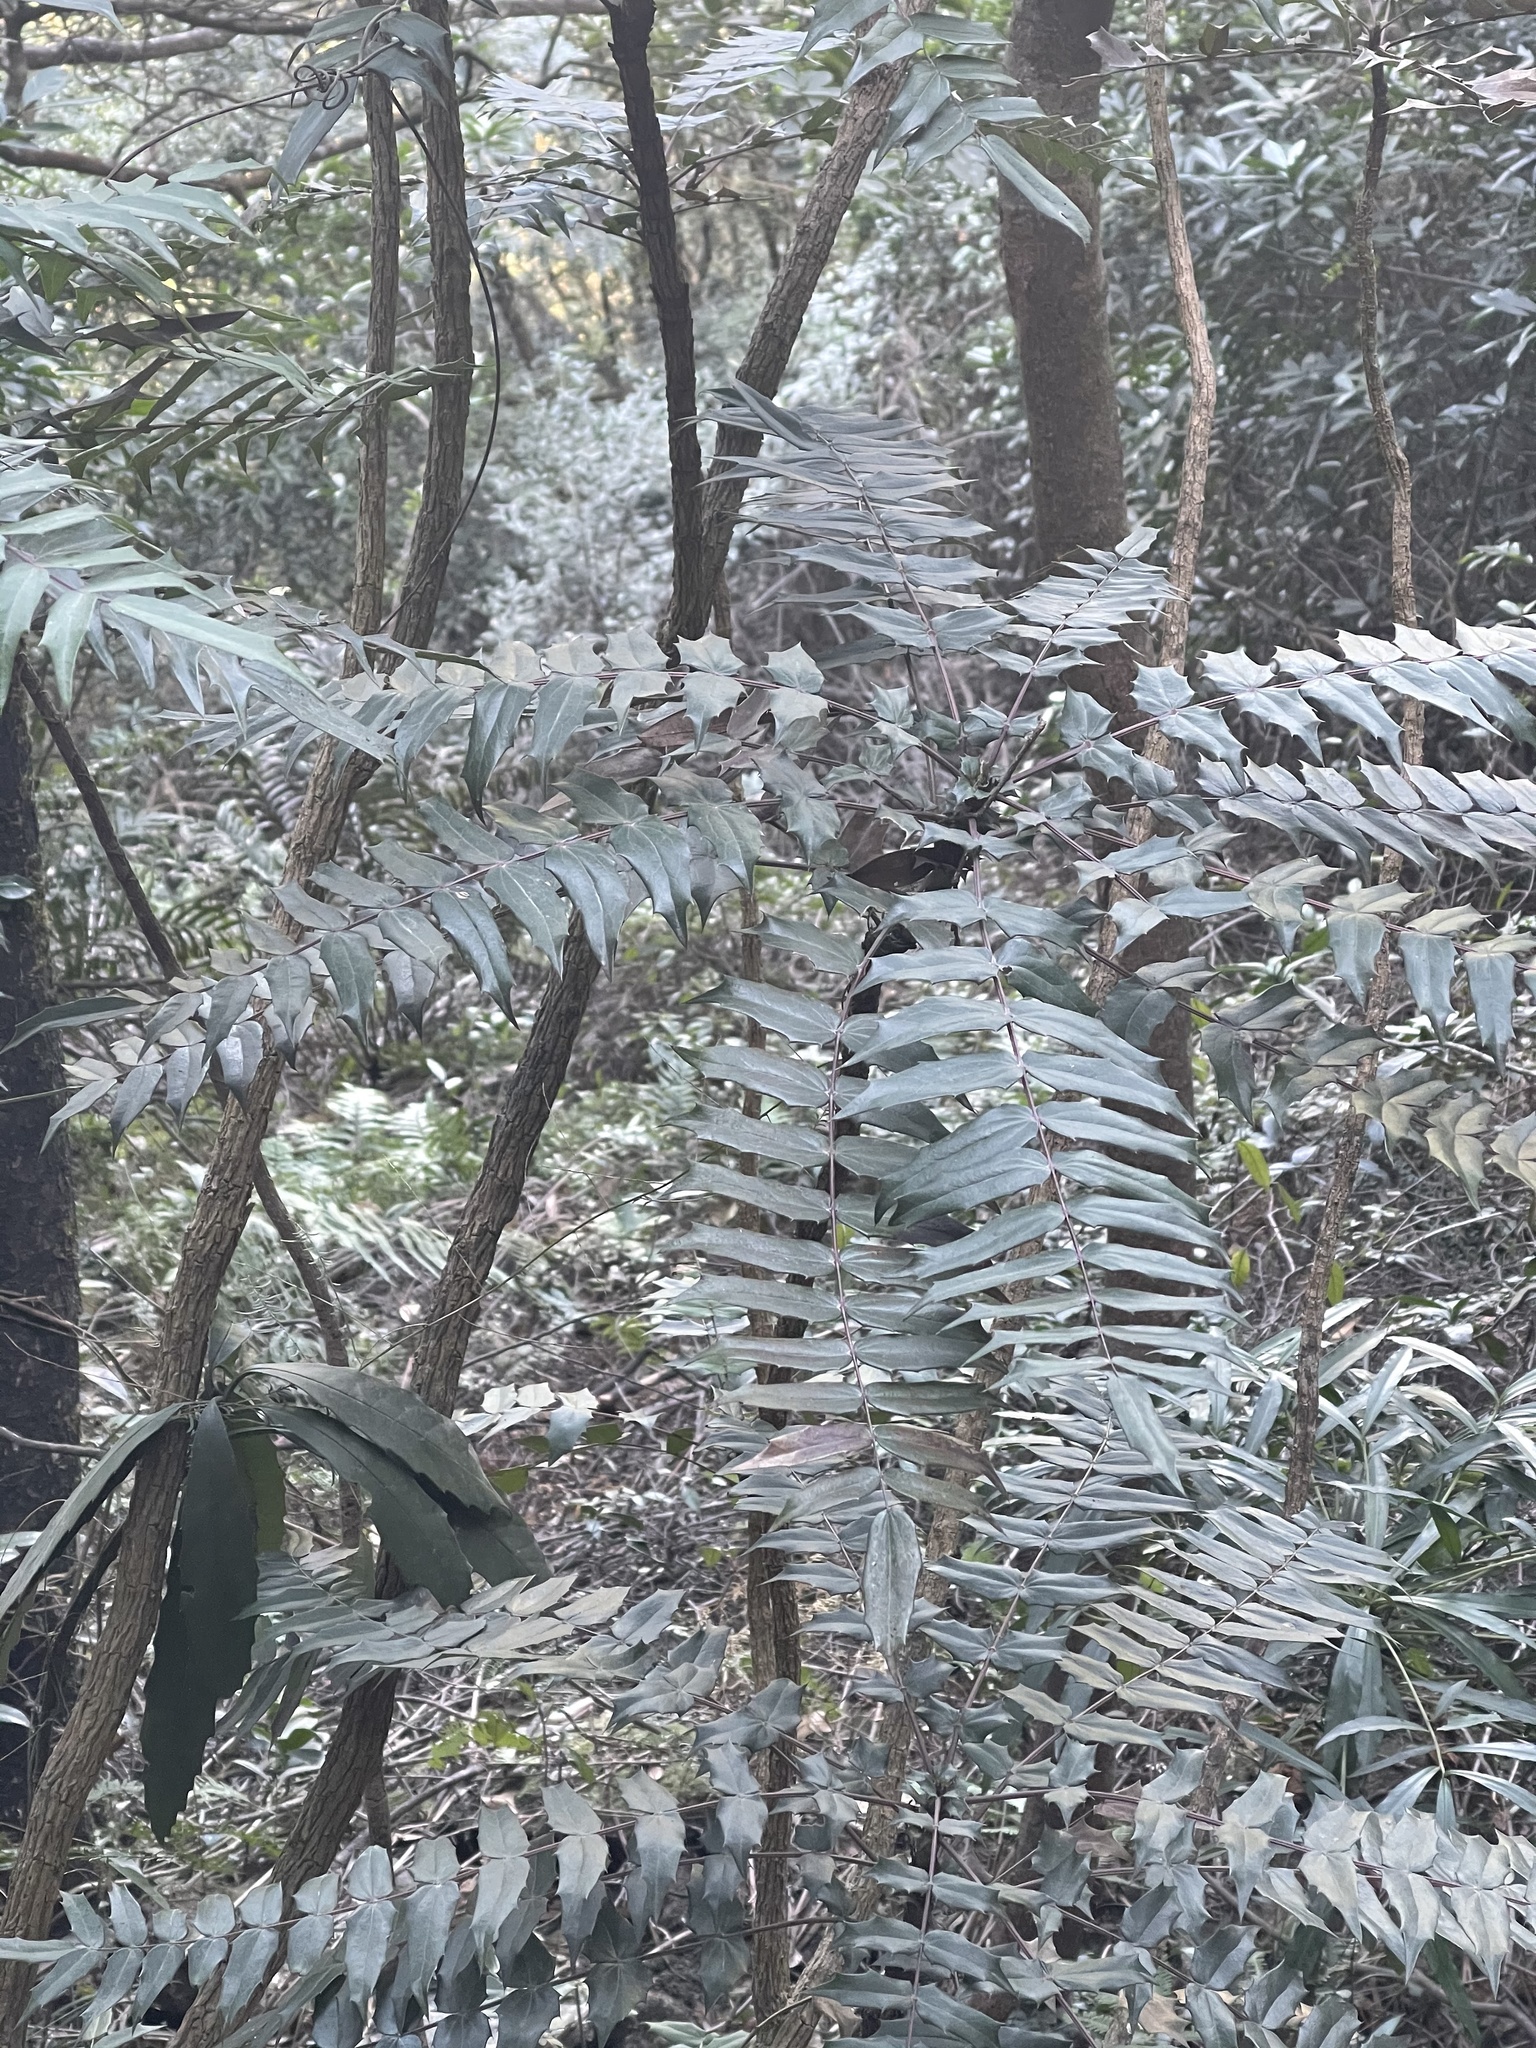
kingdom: Plantae
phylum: Tracheophyta
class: Magnoliopsida
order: Ranunculales
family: Berberidaceae
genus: Mahonia
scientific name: Mahonia oiwakensis
